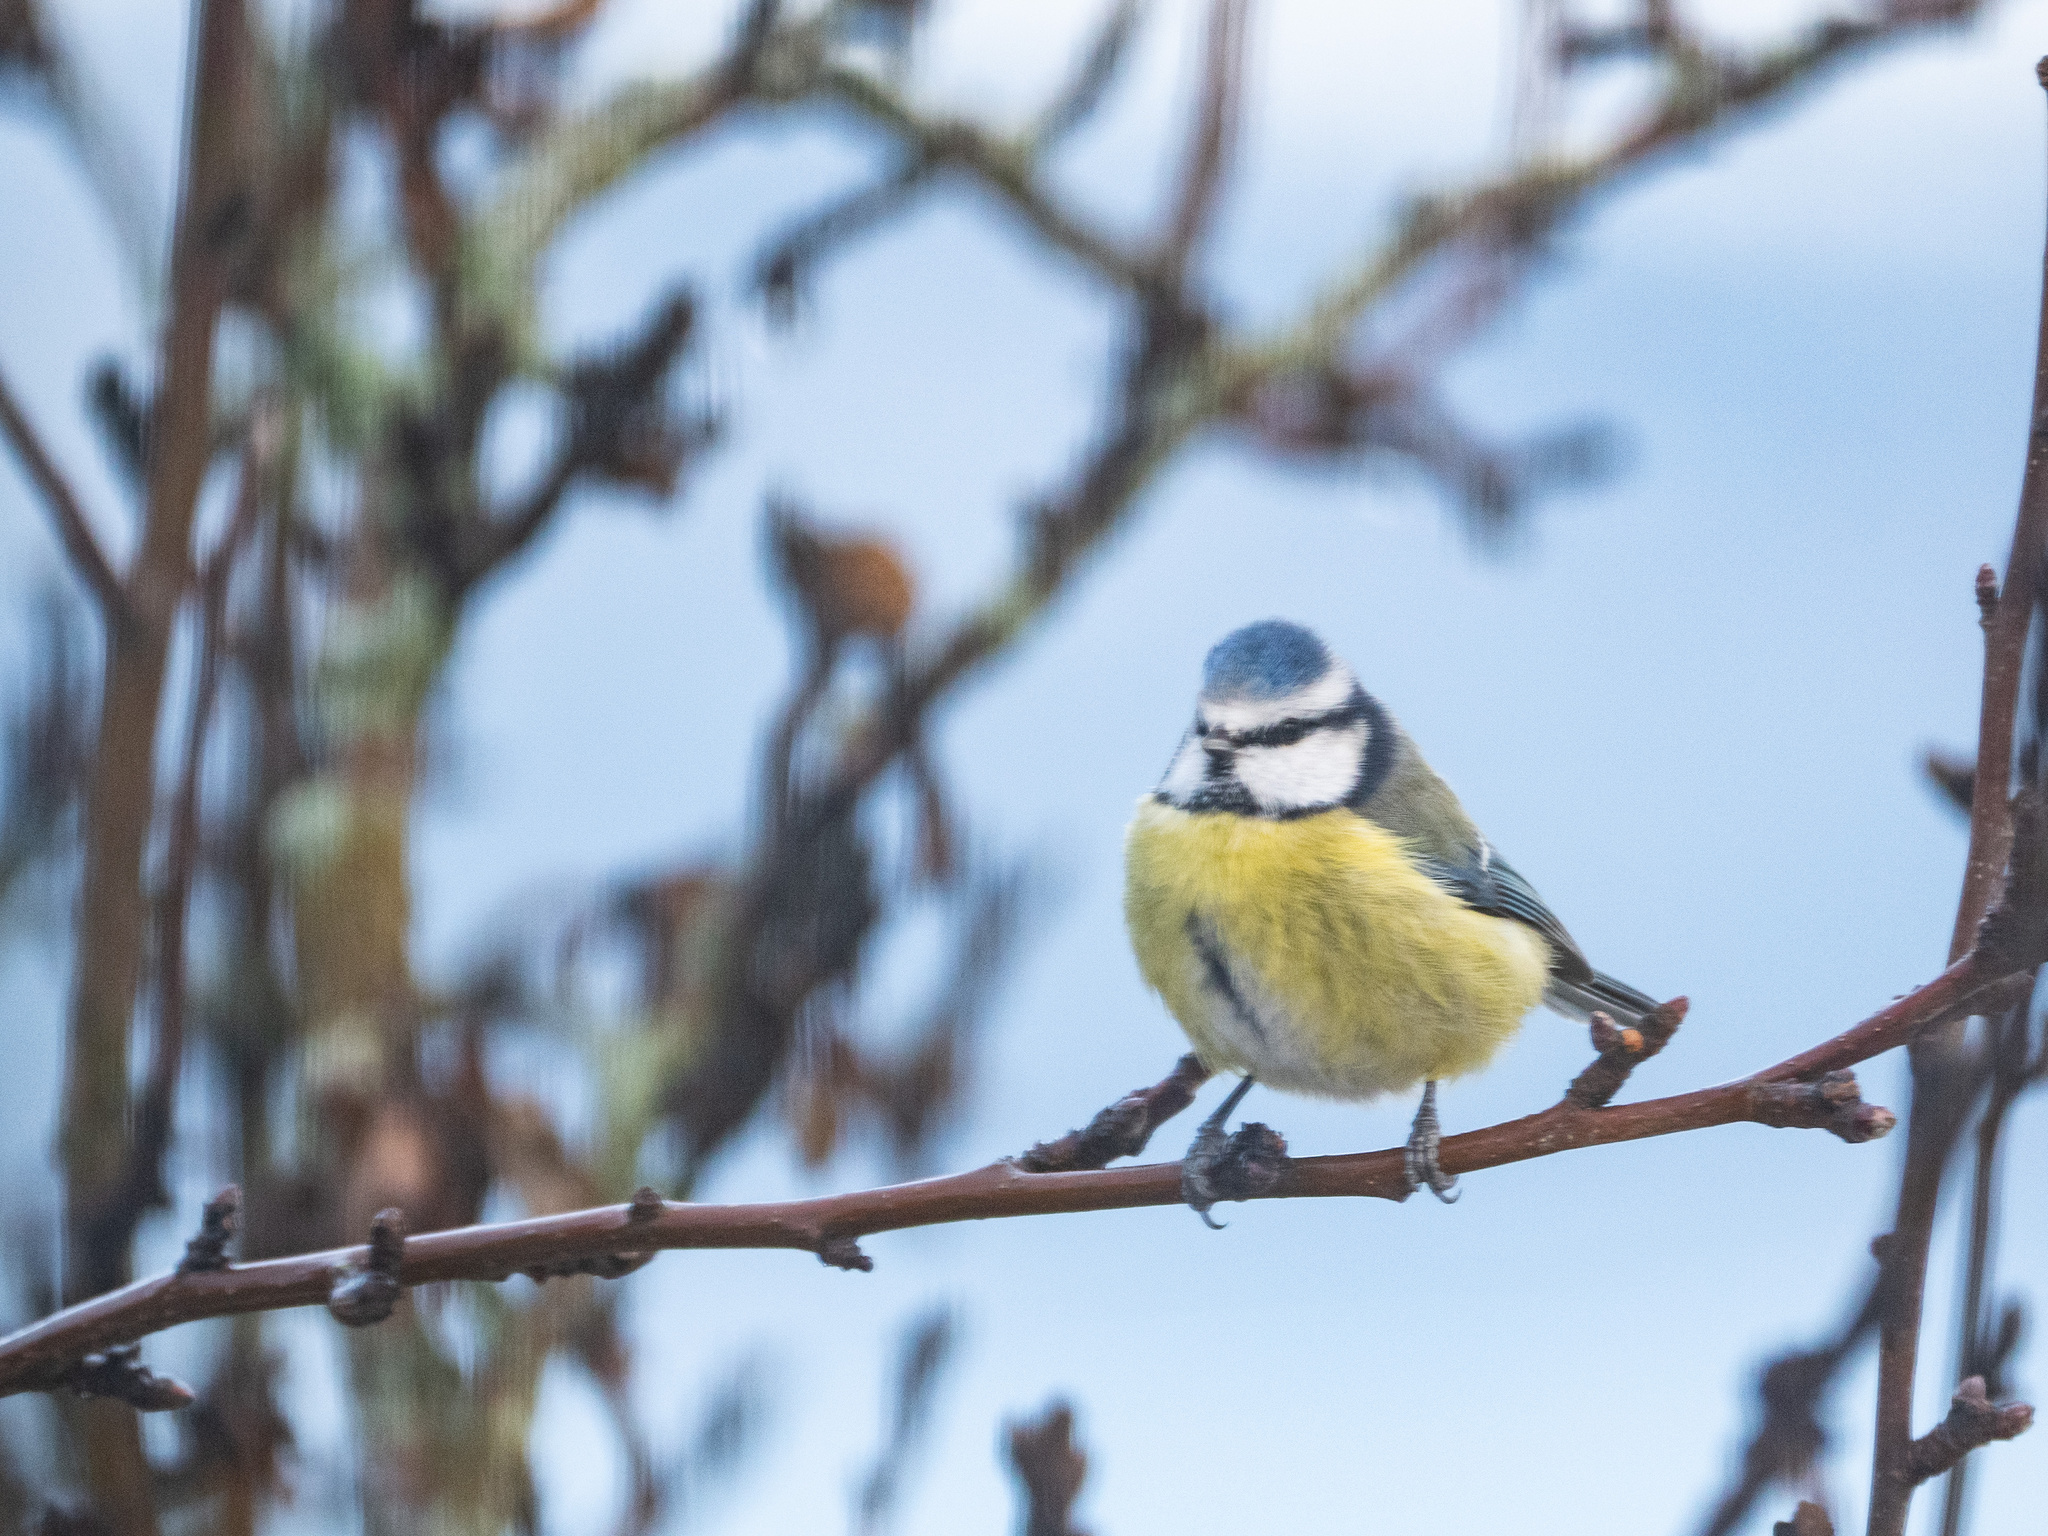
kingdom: Animalia
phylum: Chordata
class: Aves
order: Passeriformes
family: Paridae
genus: Cyanistes
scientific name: Cyanistes caeruleus
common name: Eurasian blue tit
